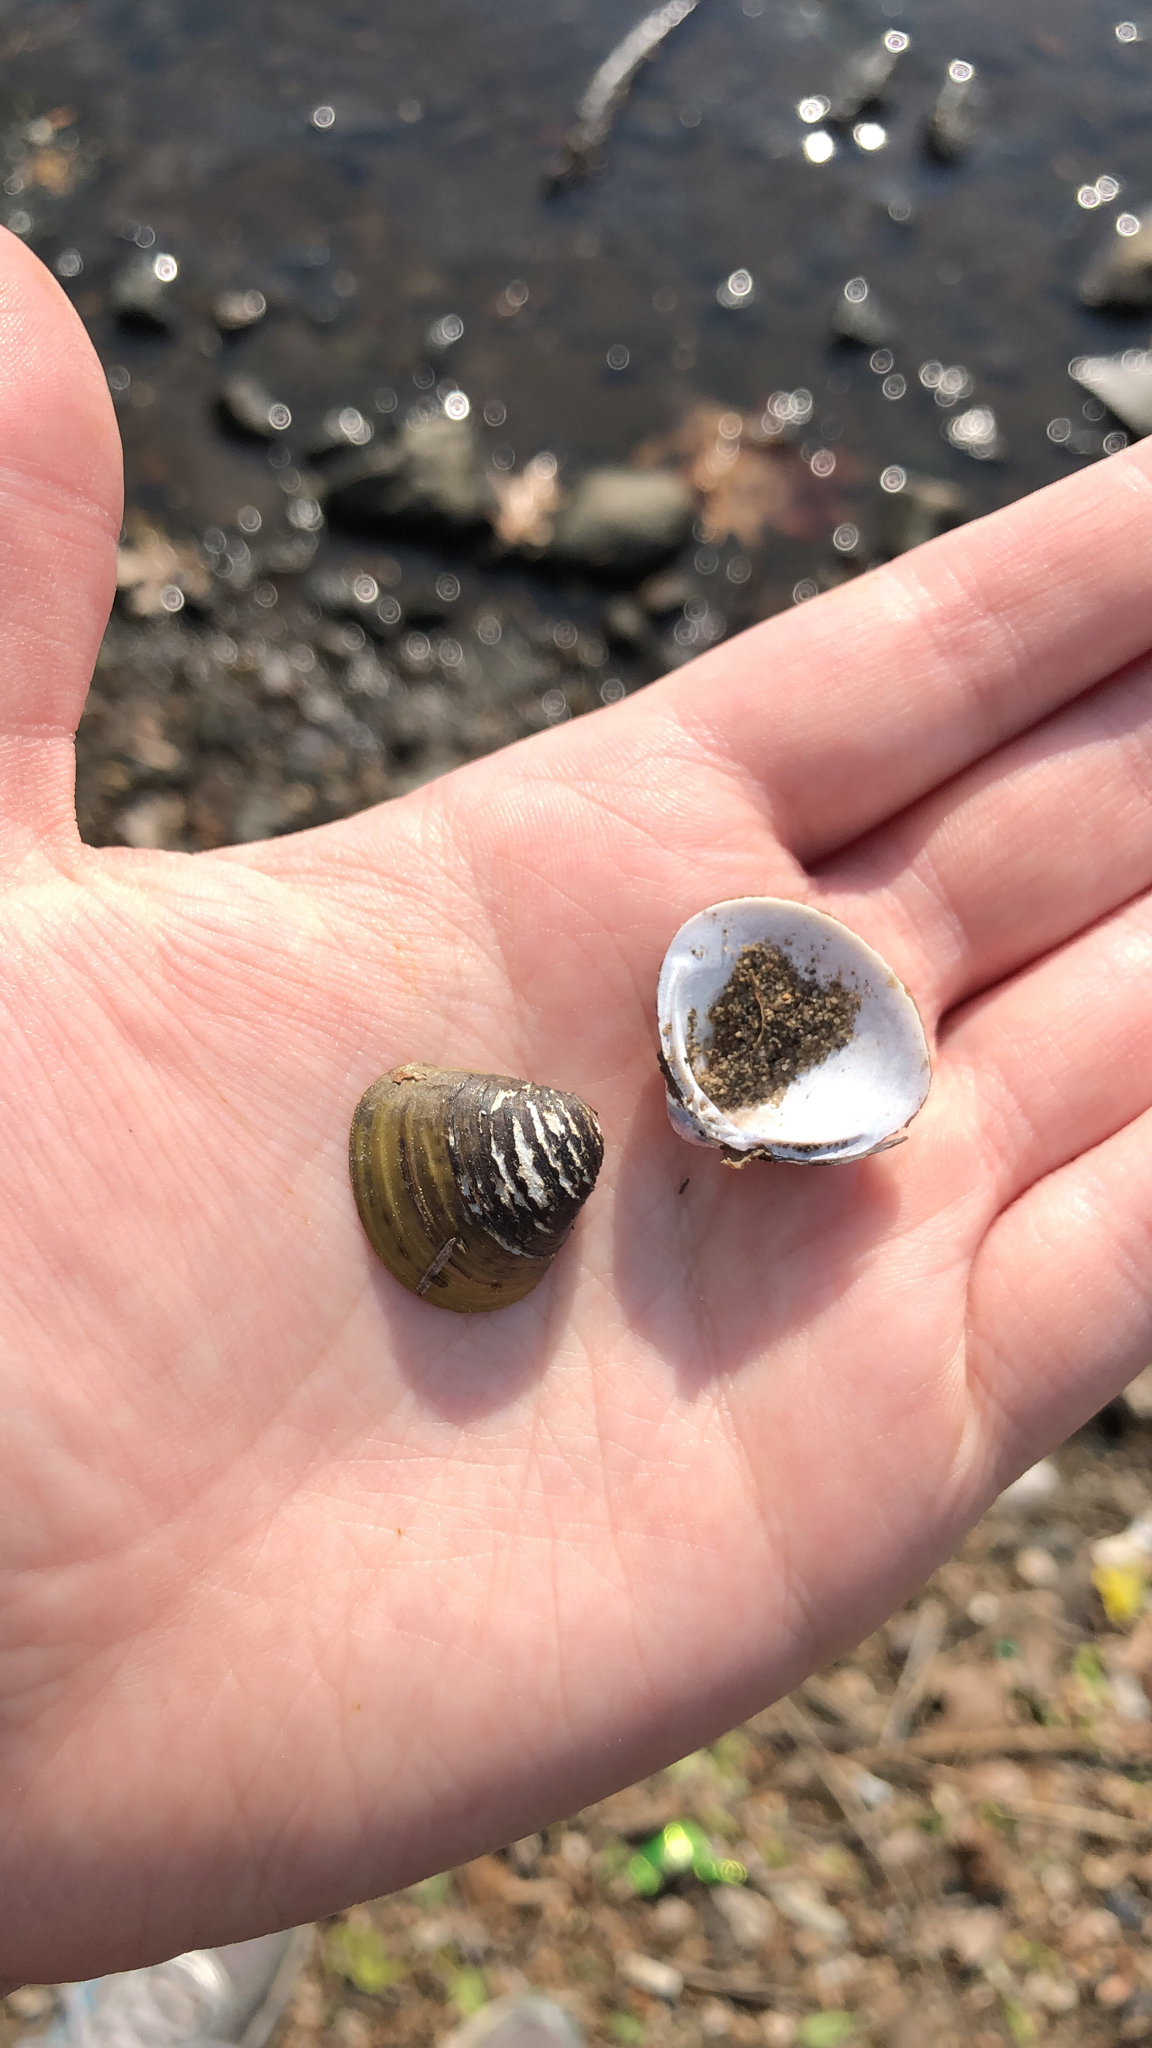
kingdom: Animalia
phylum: Mollusca
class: Bivalvia
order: Venerida
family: Cyrenidae
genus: Corbicula
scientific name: Corbicula fluminea
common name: Asian clam
